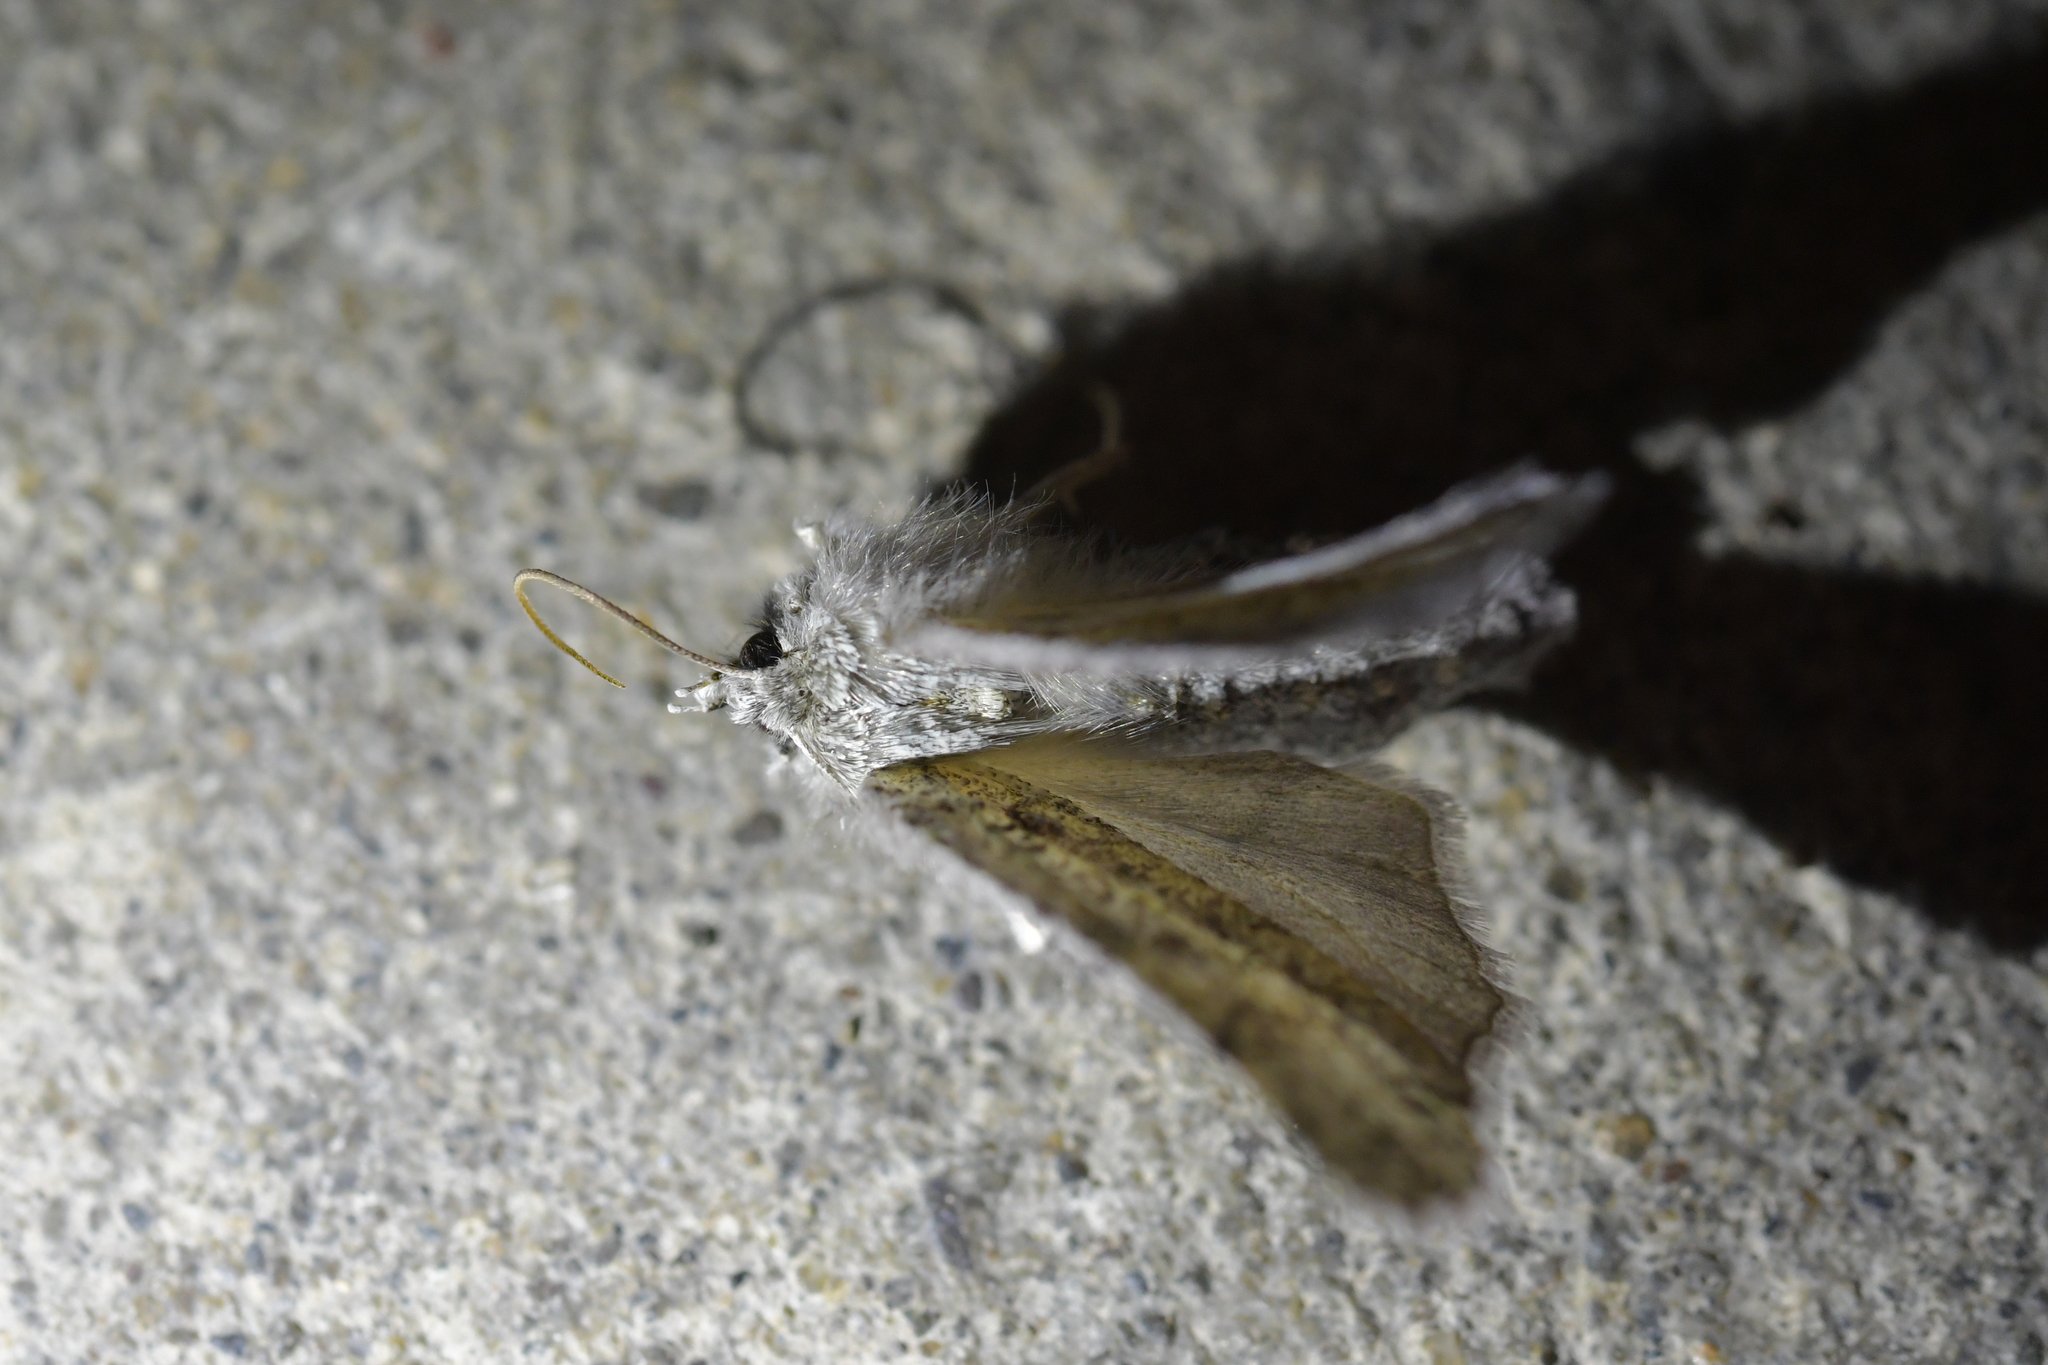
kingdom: Animalia
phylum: Arthropoda
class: Insecta
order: Lepidoptera
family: Geometridae
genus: Declana
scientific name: Declana floccosa
